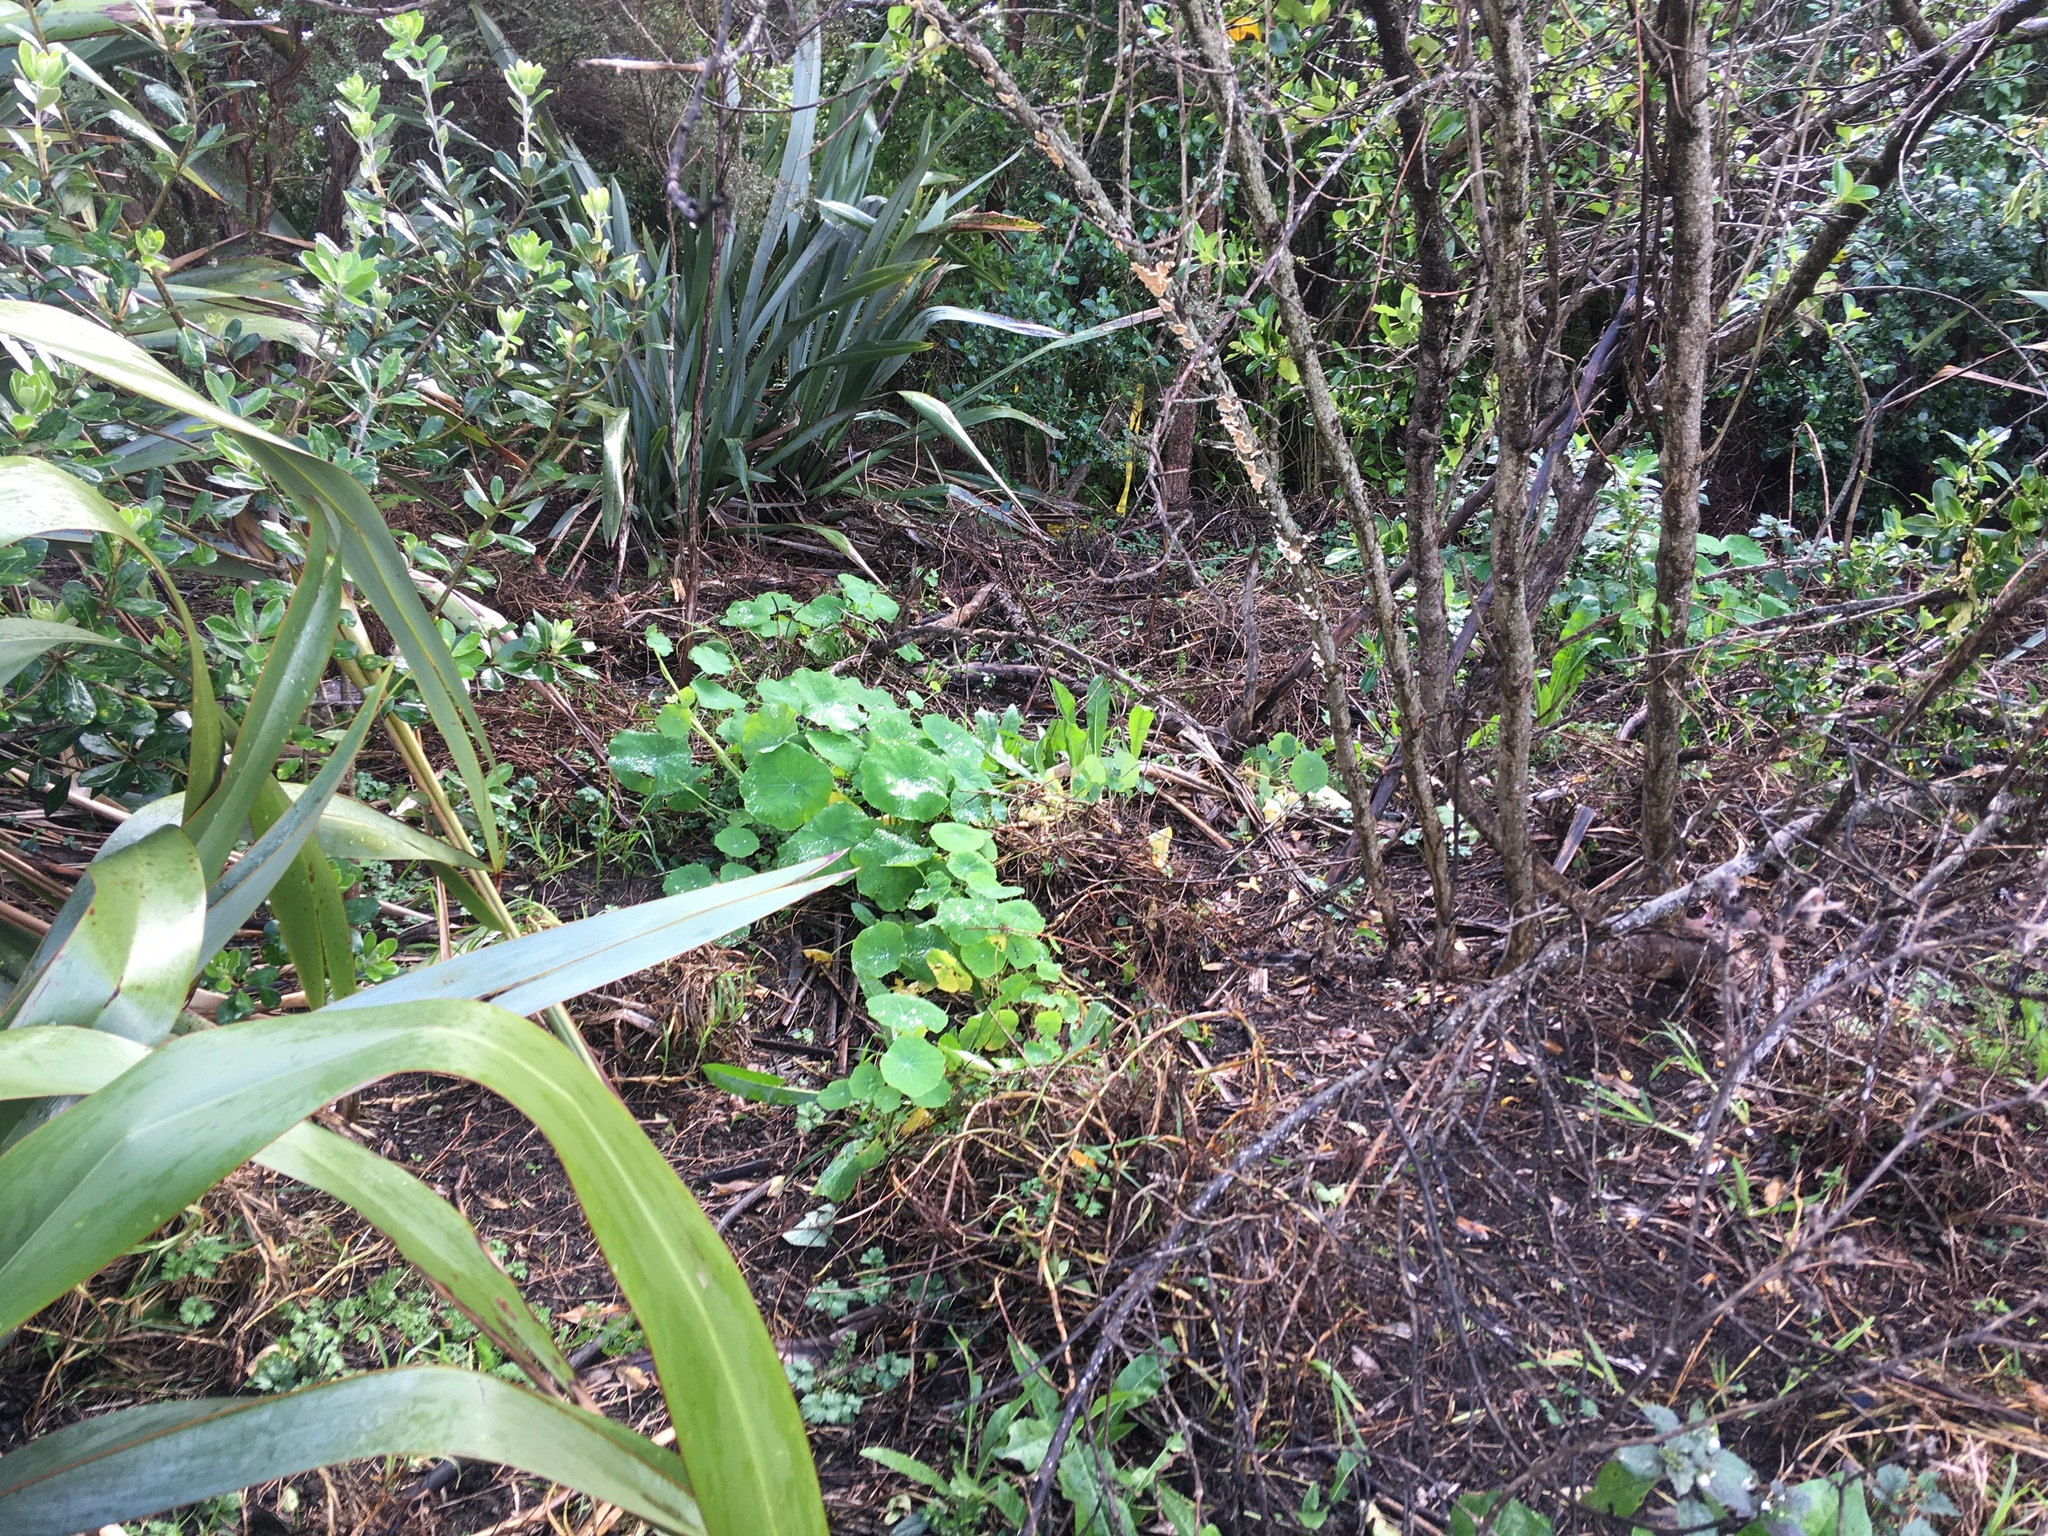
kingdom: Plantae
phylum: Tracheophyta
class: Magnoliopsida
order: Brassicales
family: Tropaeolaceae
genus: Tropaeolum
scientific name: Tropaeolum majus
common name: Nasturtium
